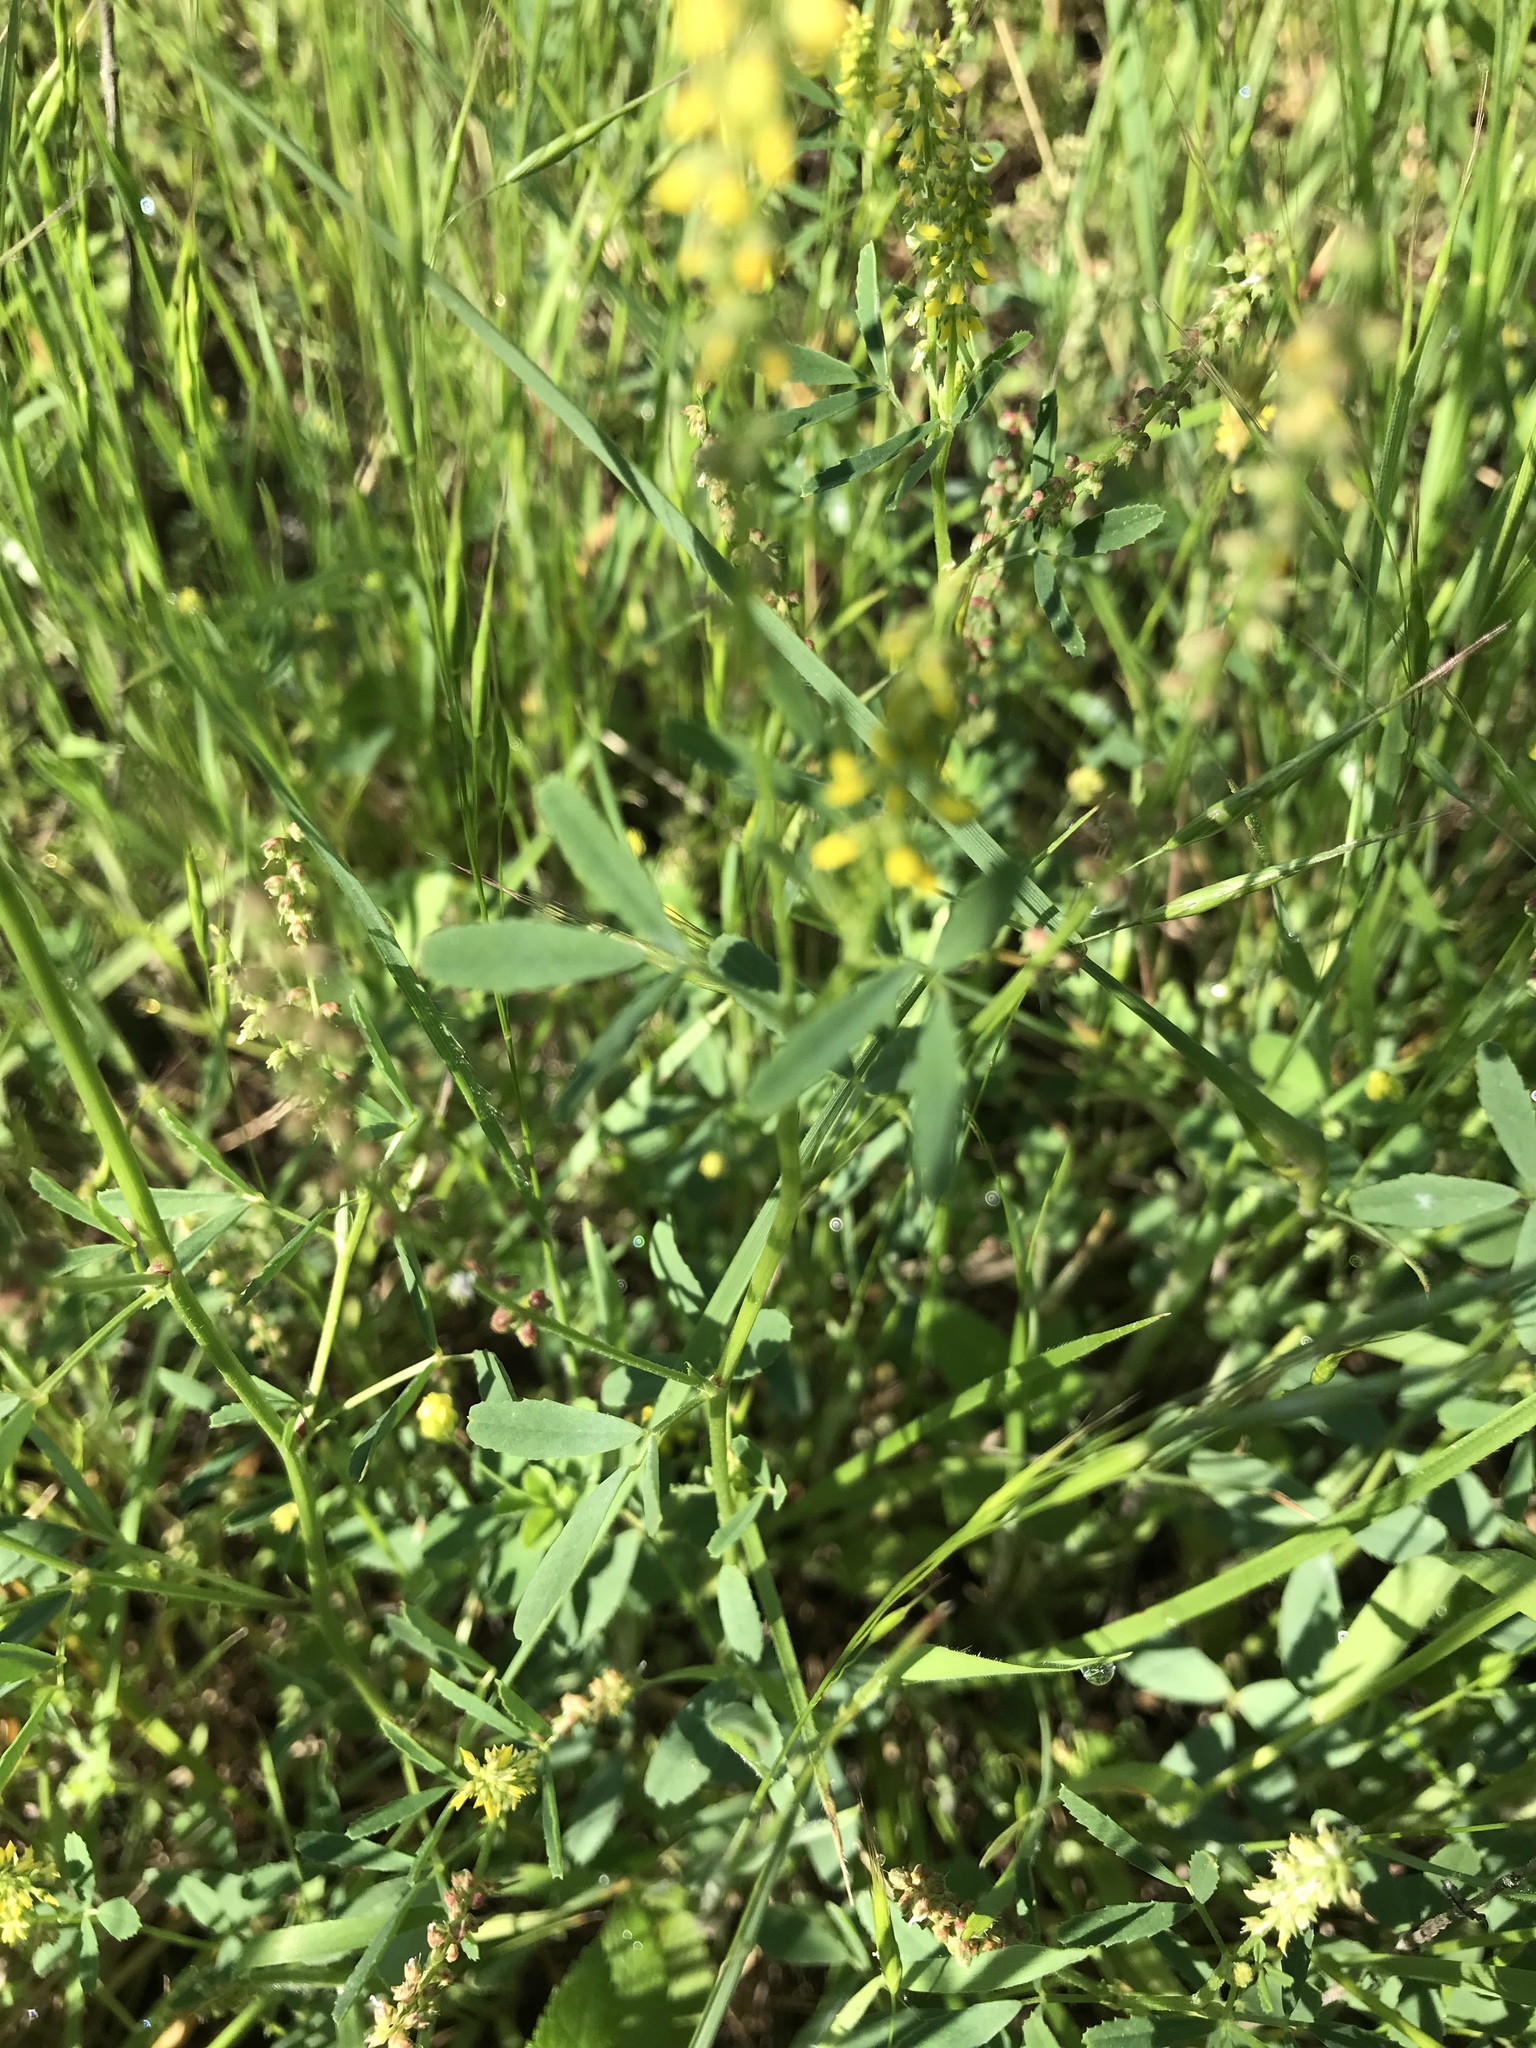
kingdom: Plantae
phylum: Tracheophyta
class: Magnoliopsida
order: Fabales
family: Fabaceae
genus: Melilotus
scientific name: Melilotus indicus
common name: Small melilot
